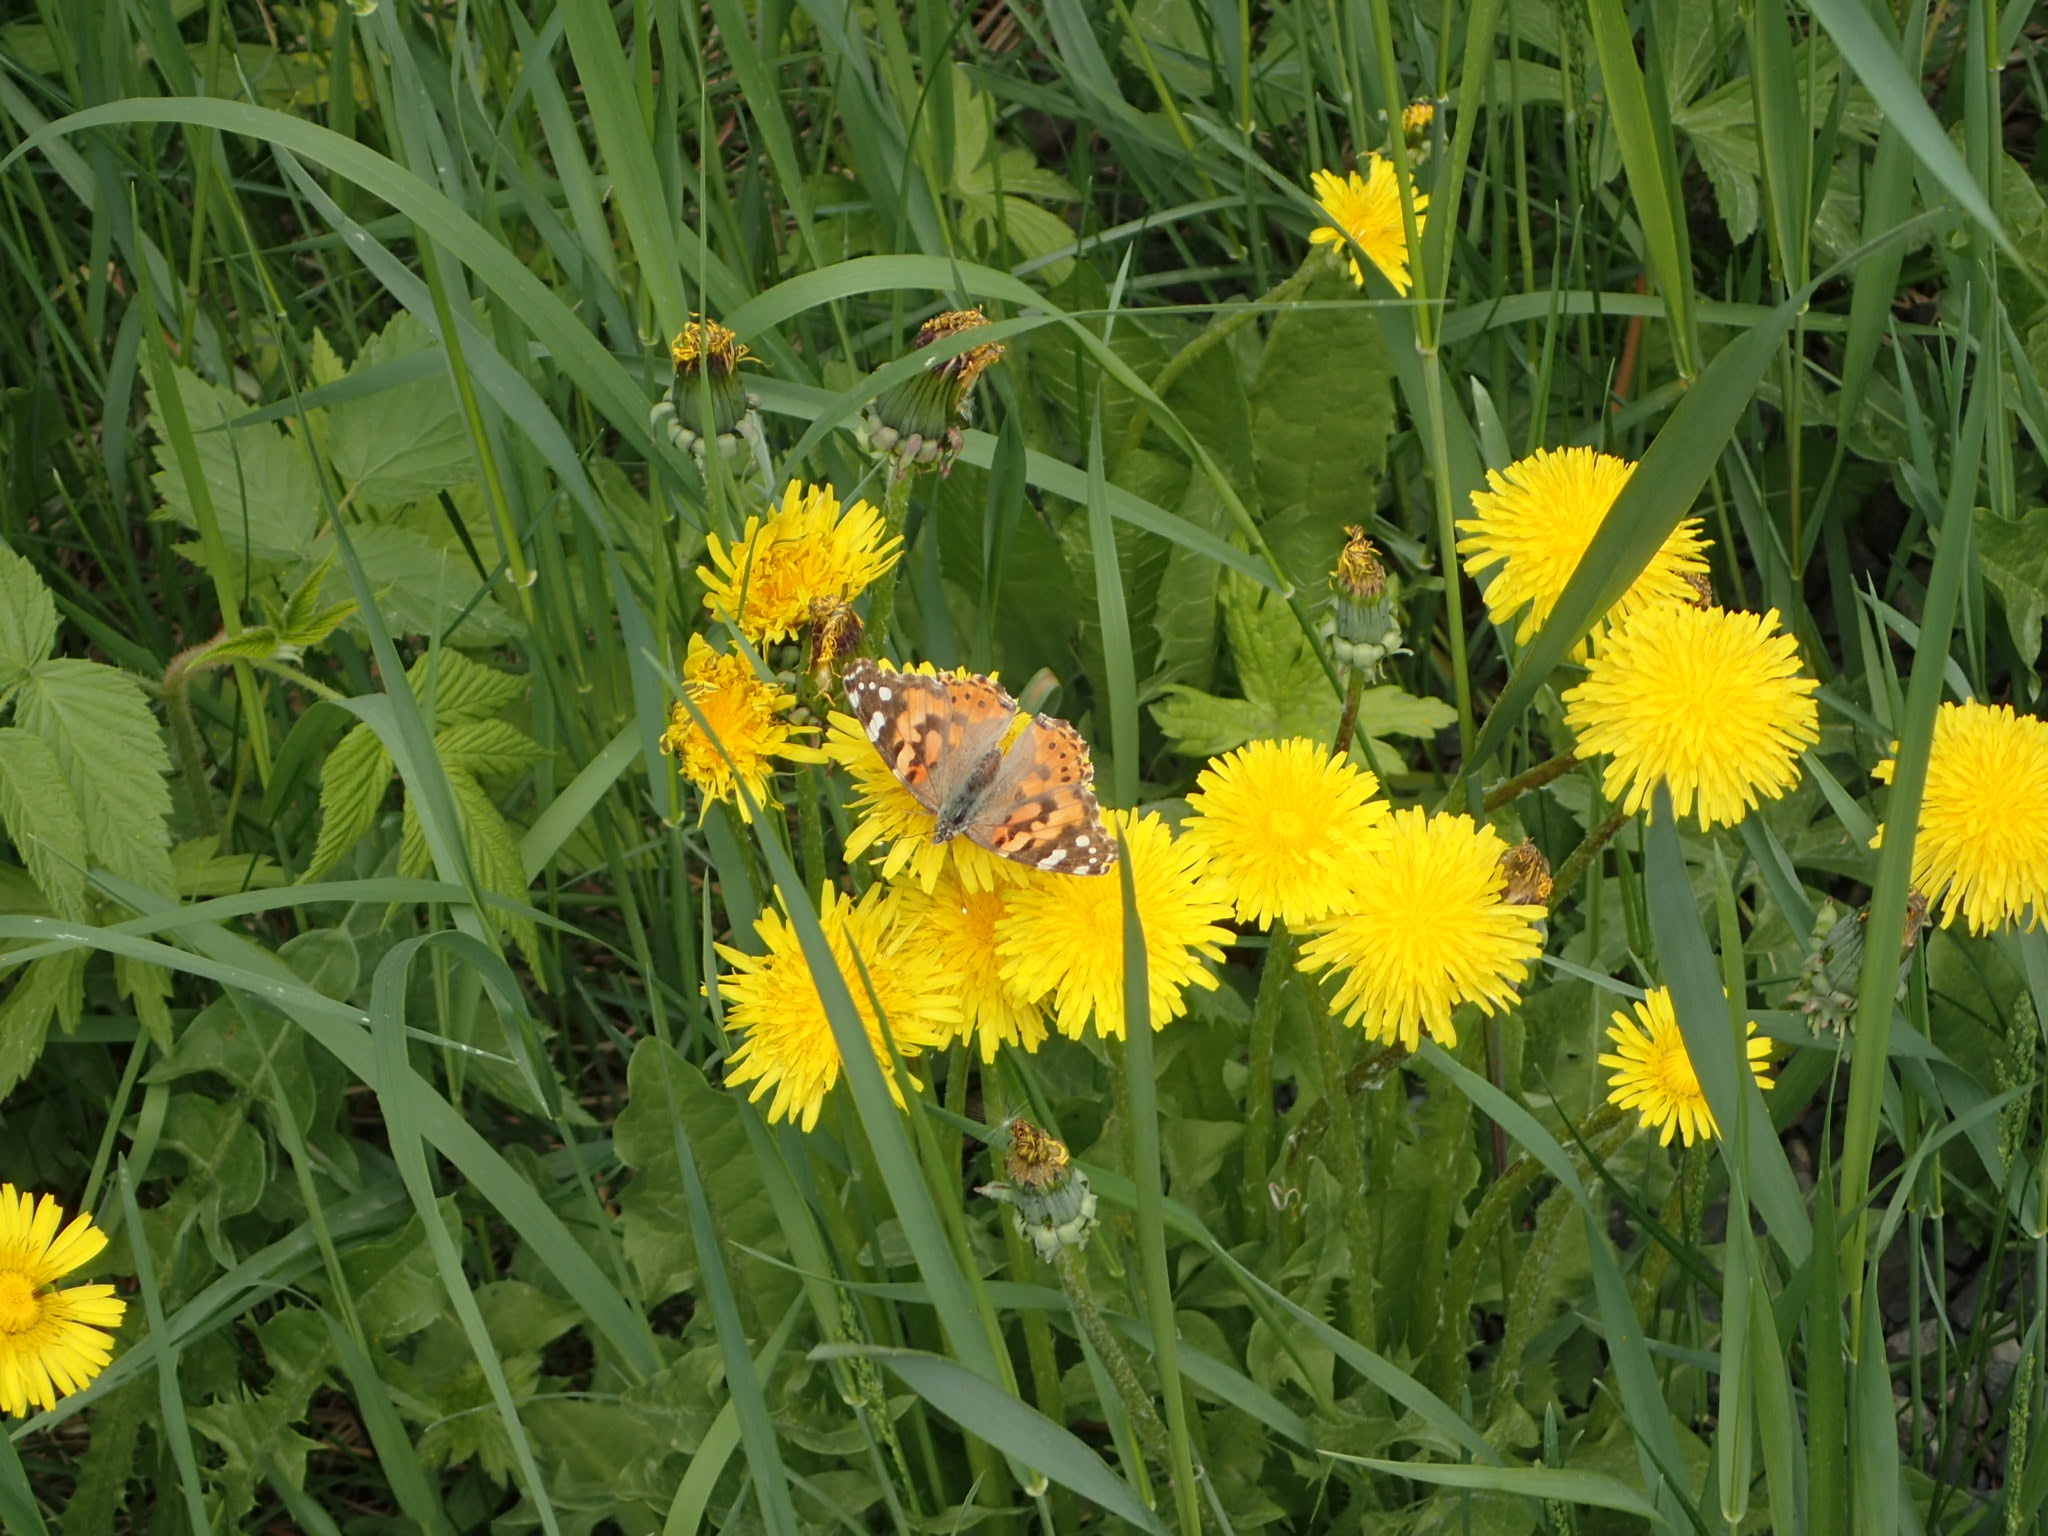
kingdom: Animalia
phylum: Arthropoda
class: Insecta
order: Lepidoptera
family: Nymphalidae
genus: Vanessa
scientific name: Vanessa cardui
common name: Painted lady
